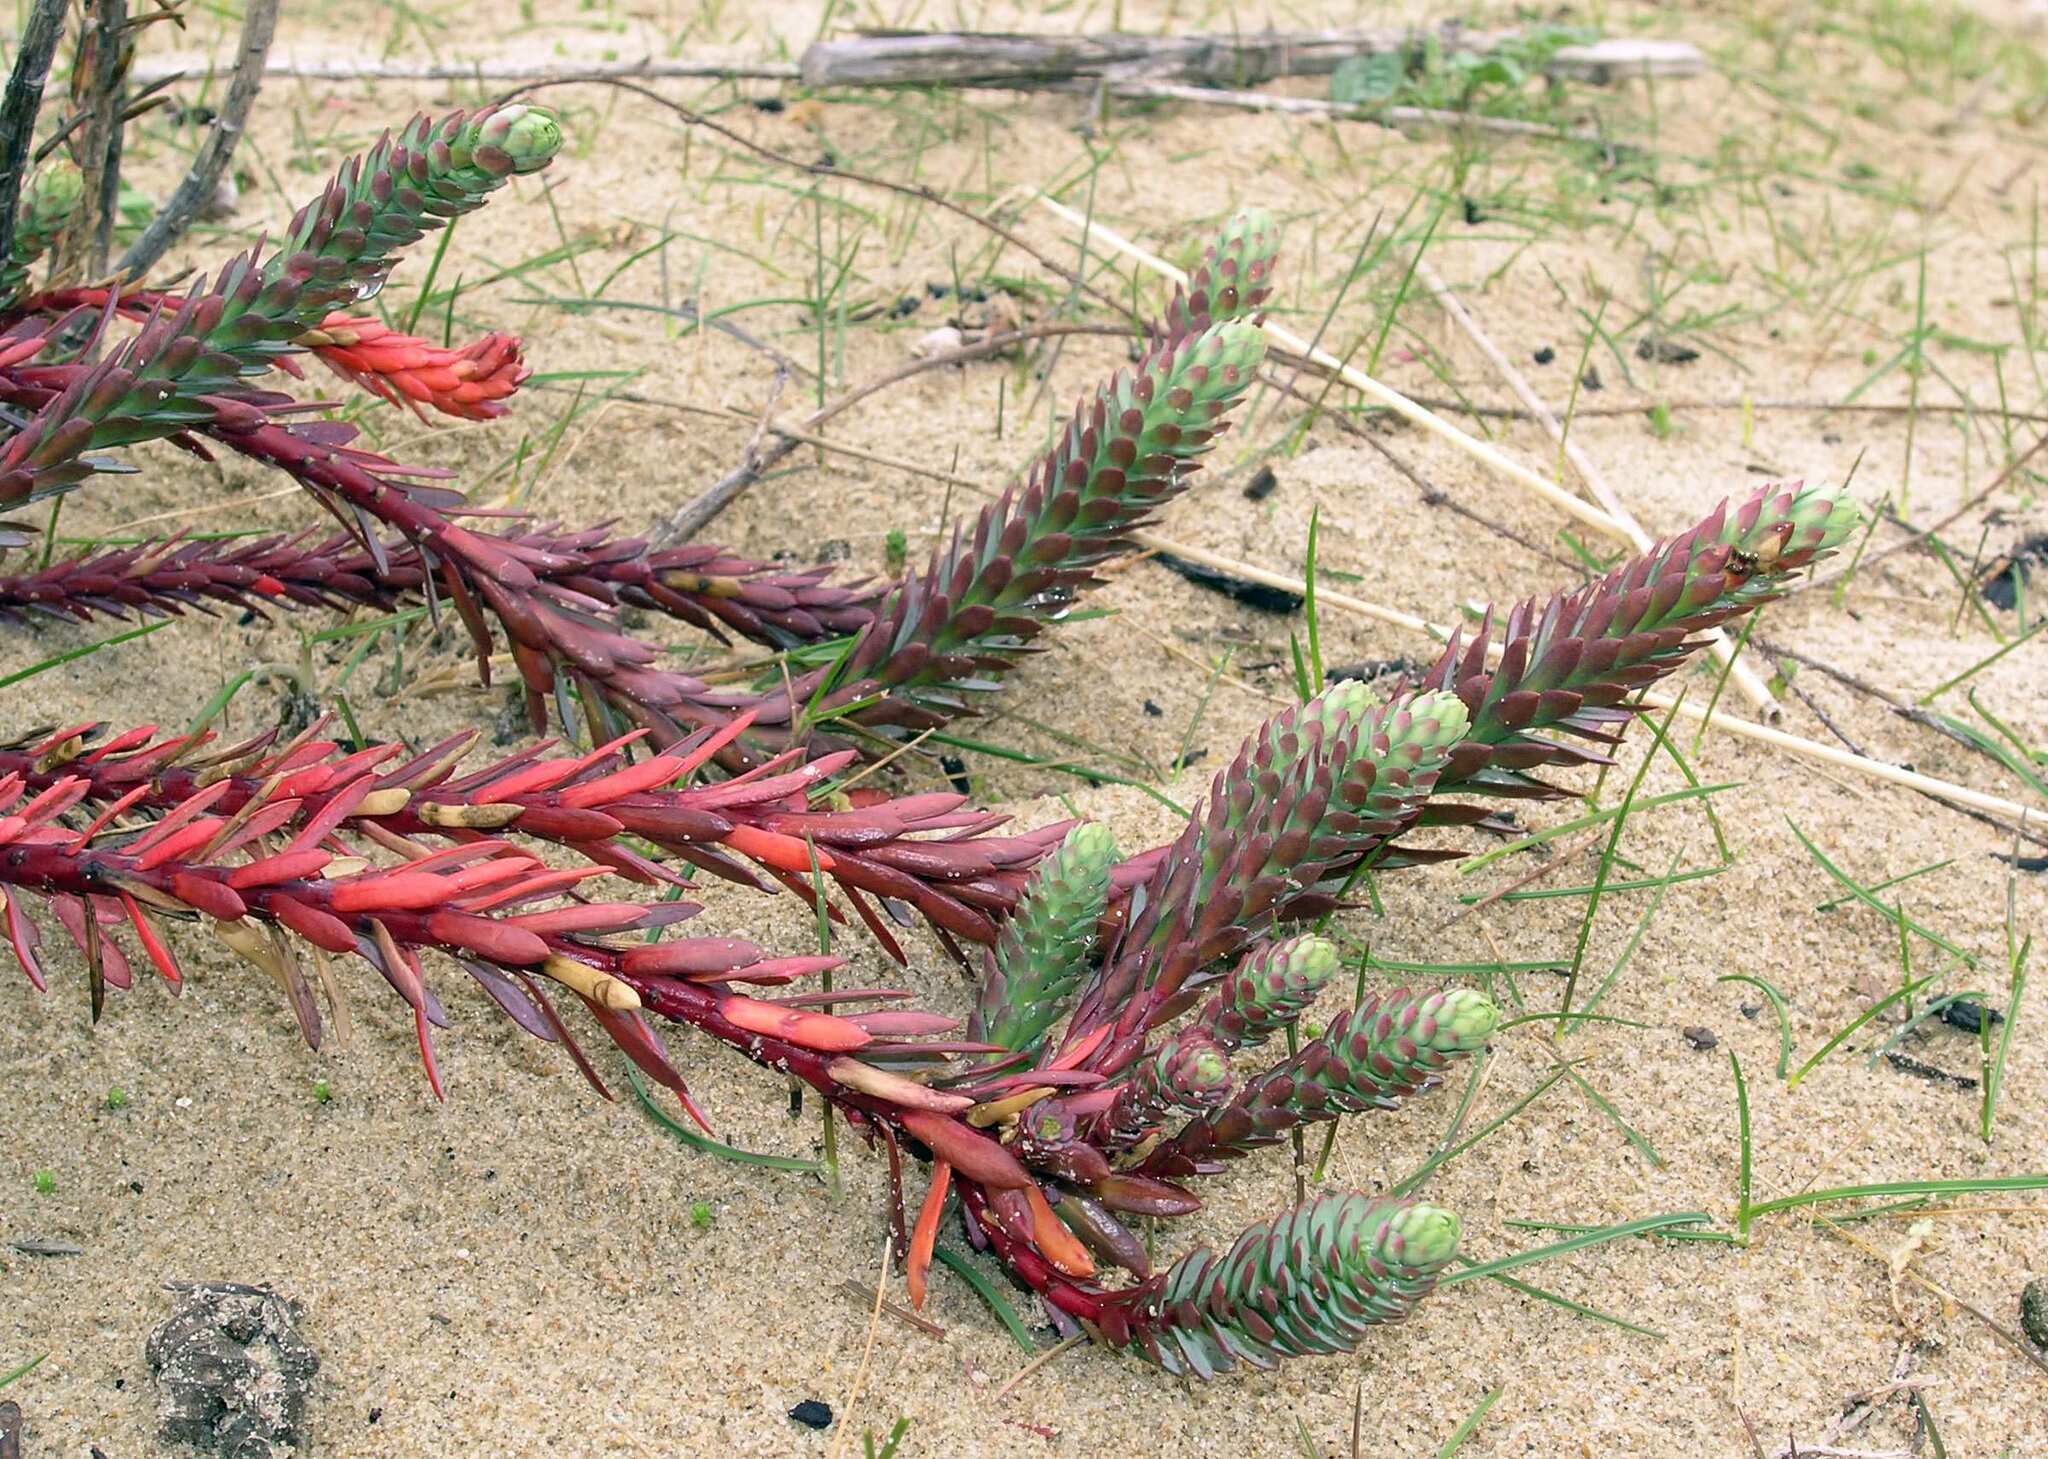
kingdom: Plantae
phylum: Tracheophyta
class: Magnoliopsida
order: Malpighiales
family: Euphorbiaceae
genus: Euphorbia
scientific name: Euphorbia paralias
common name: Sea spurge
